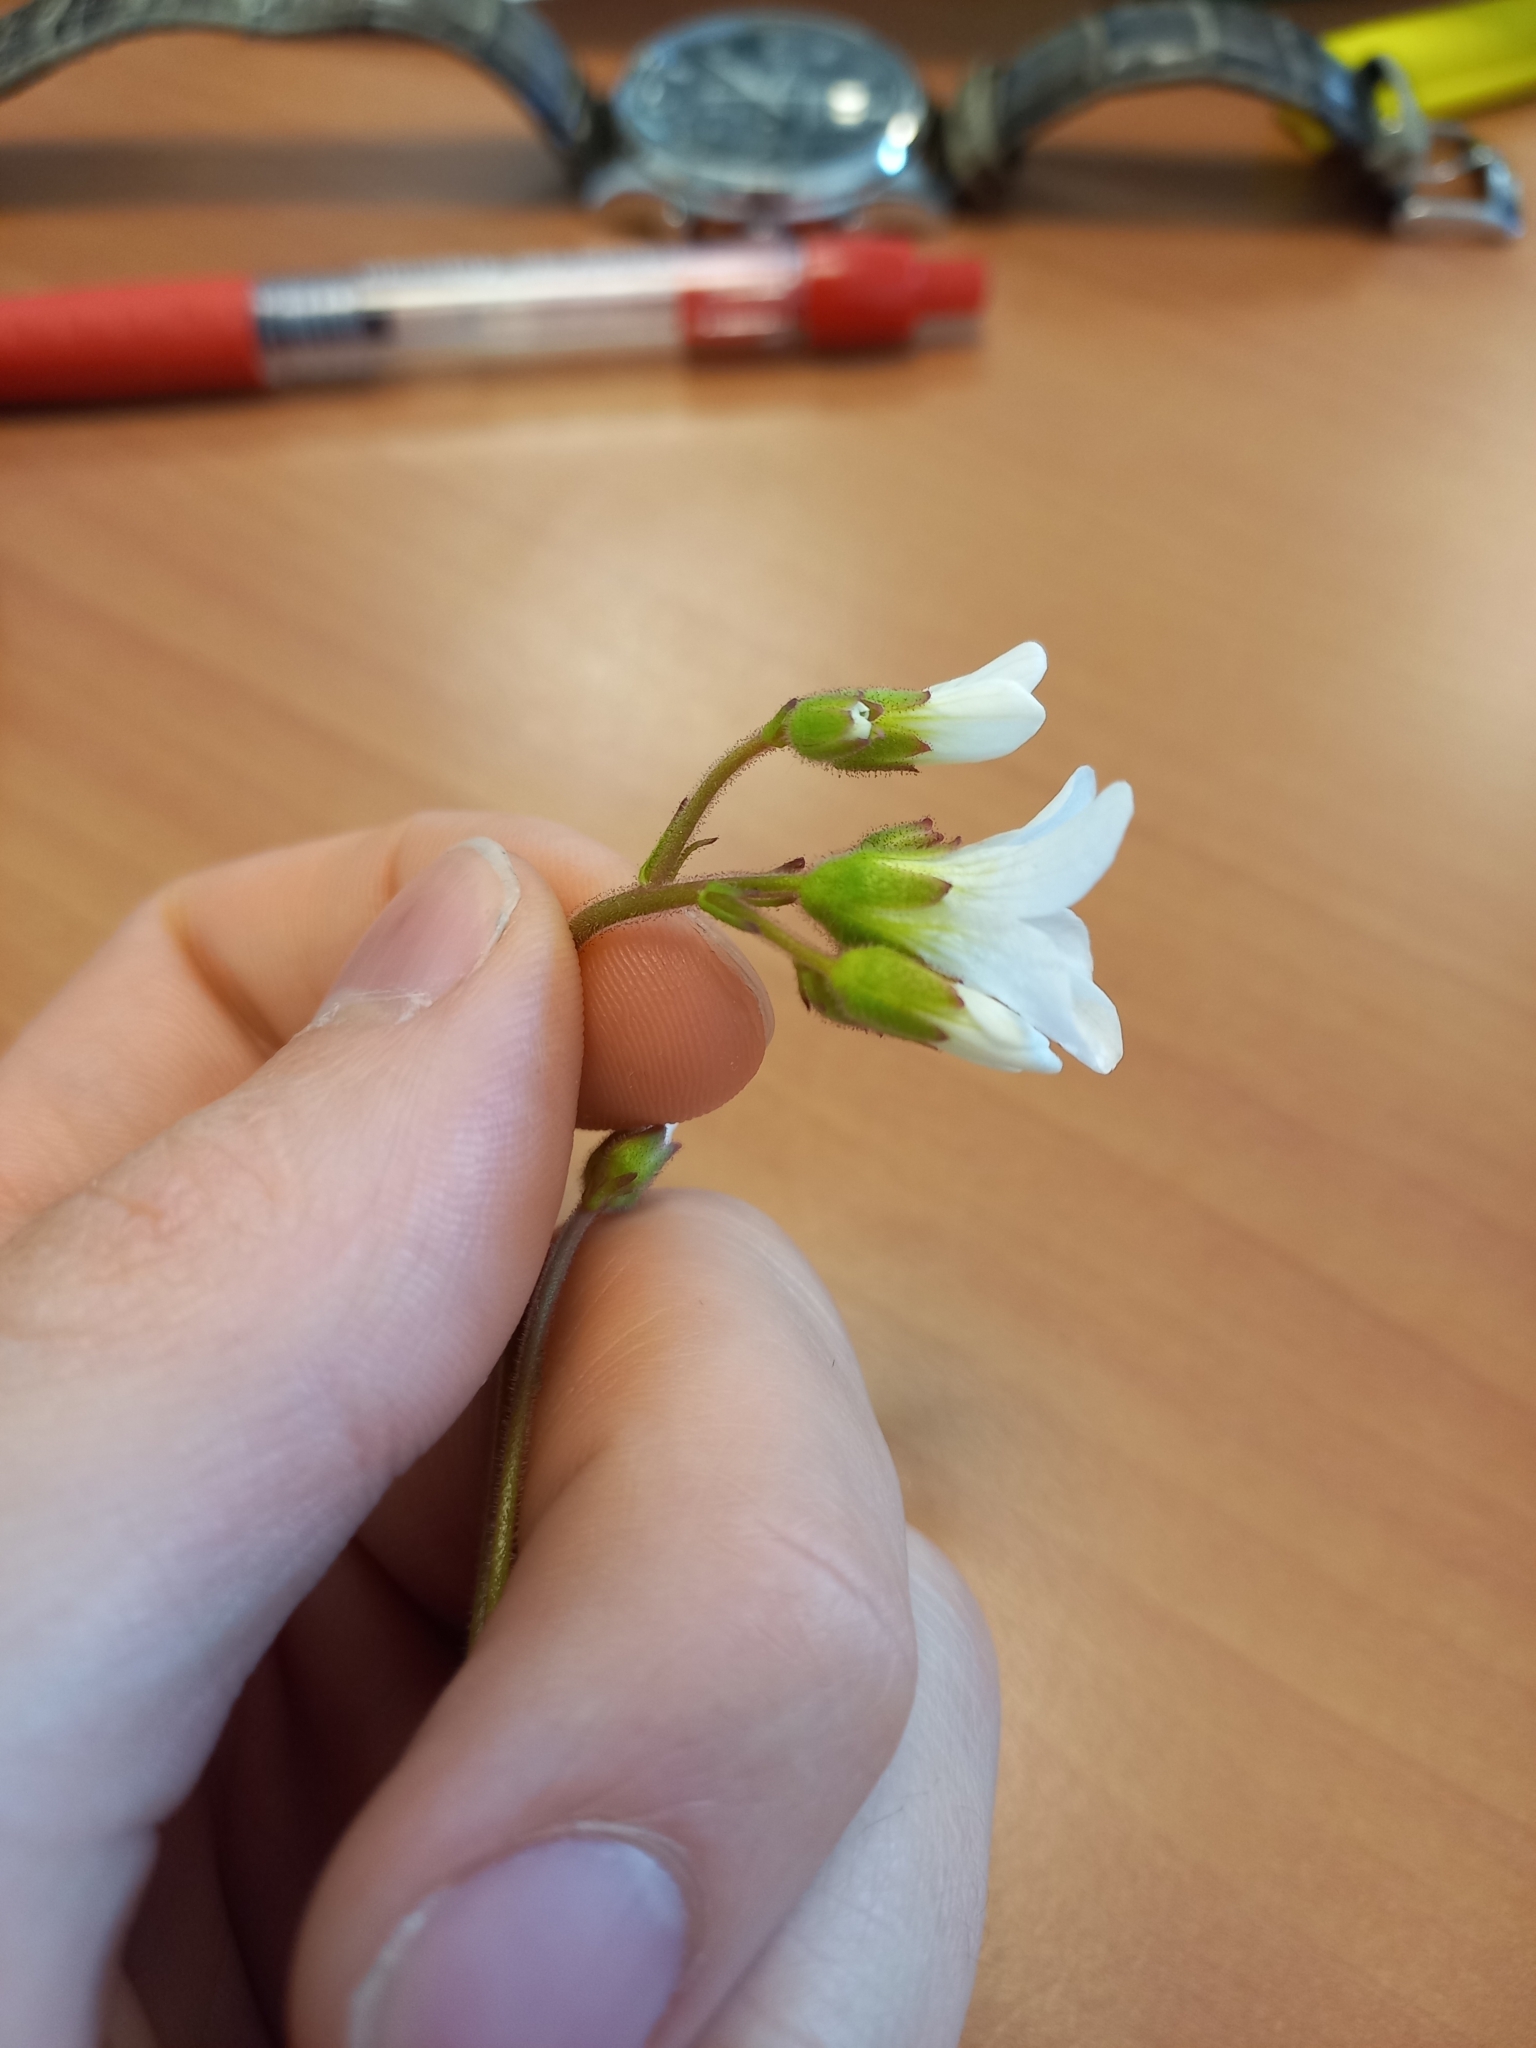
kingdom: Plantae
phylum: Tracheophyta
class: Magnoliopsida
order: Saxifragales
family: Saxifragaceae
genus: Saxifraga
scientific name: Saxifraga granulata
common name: Meadow saxifrage
